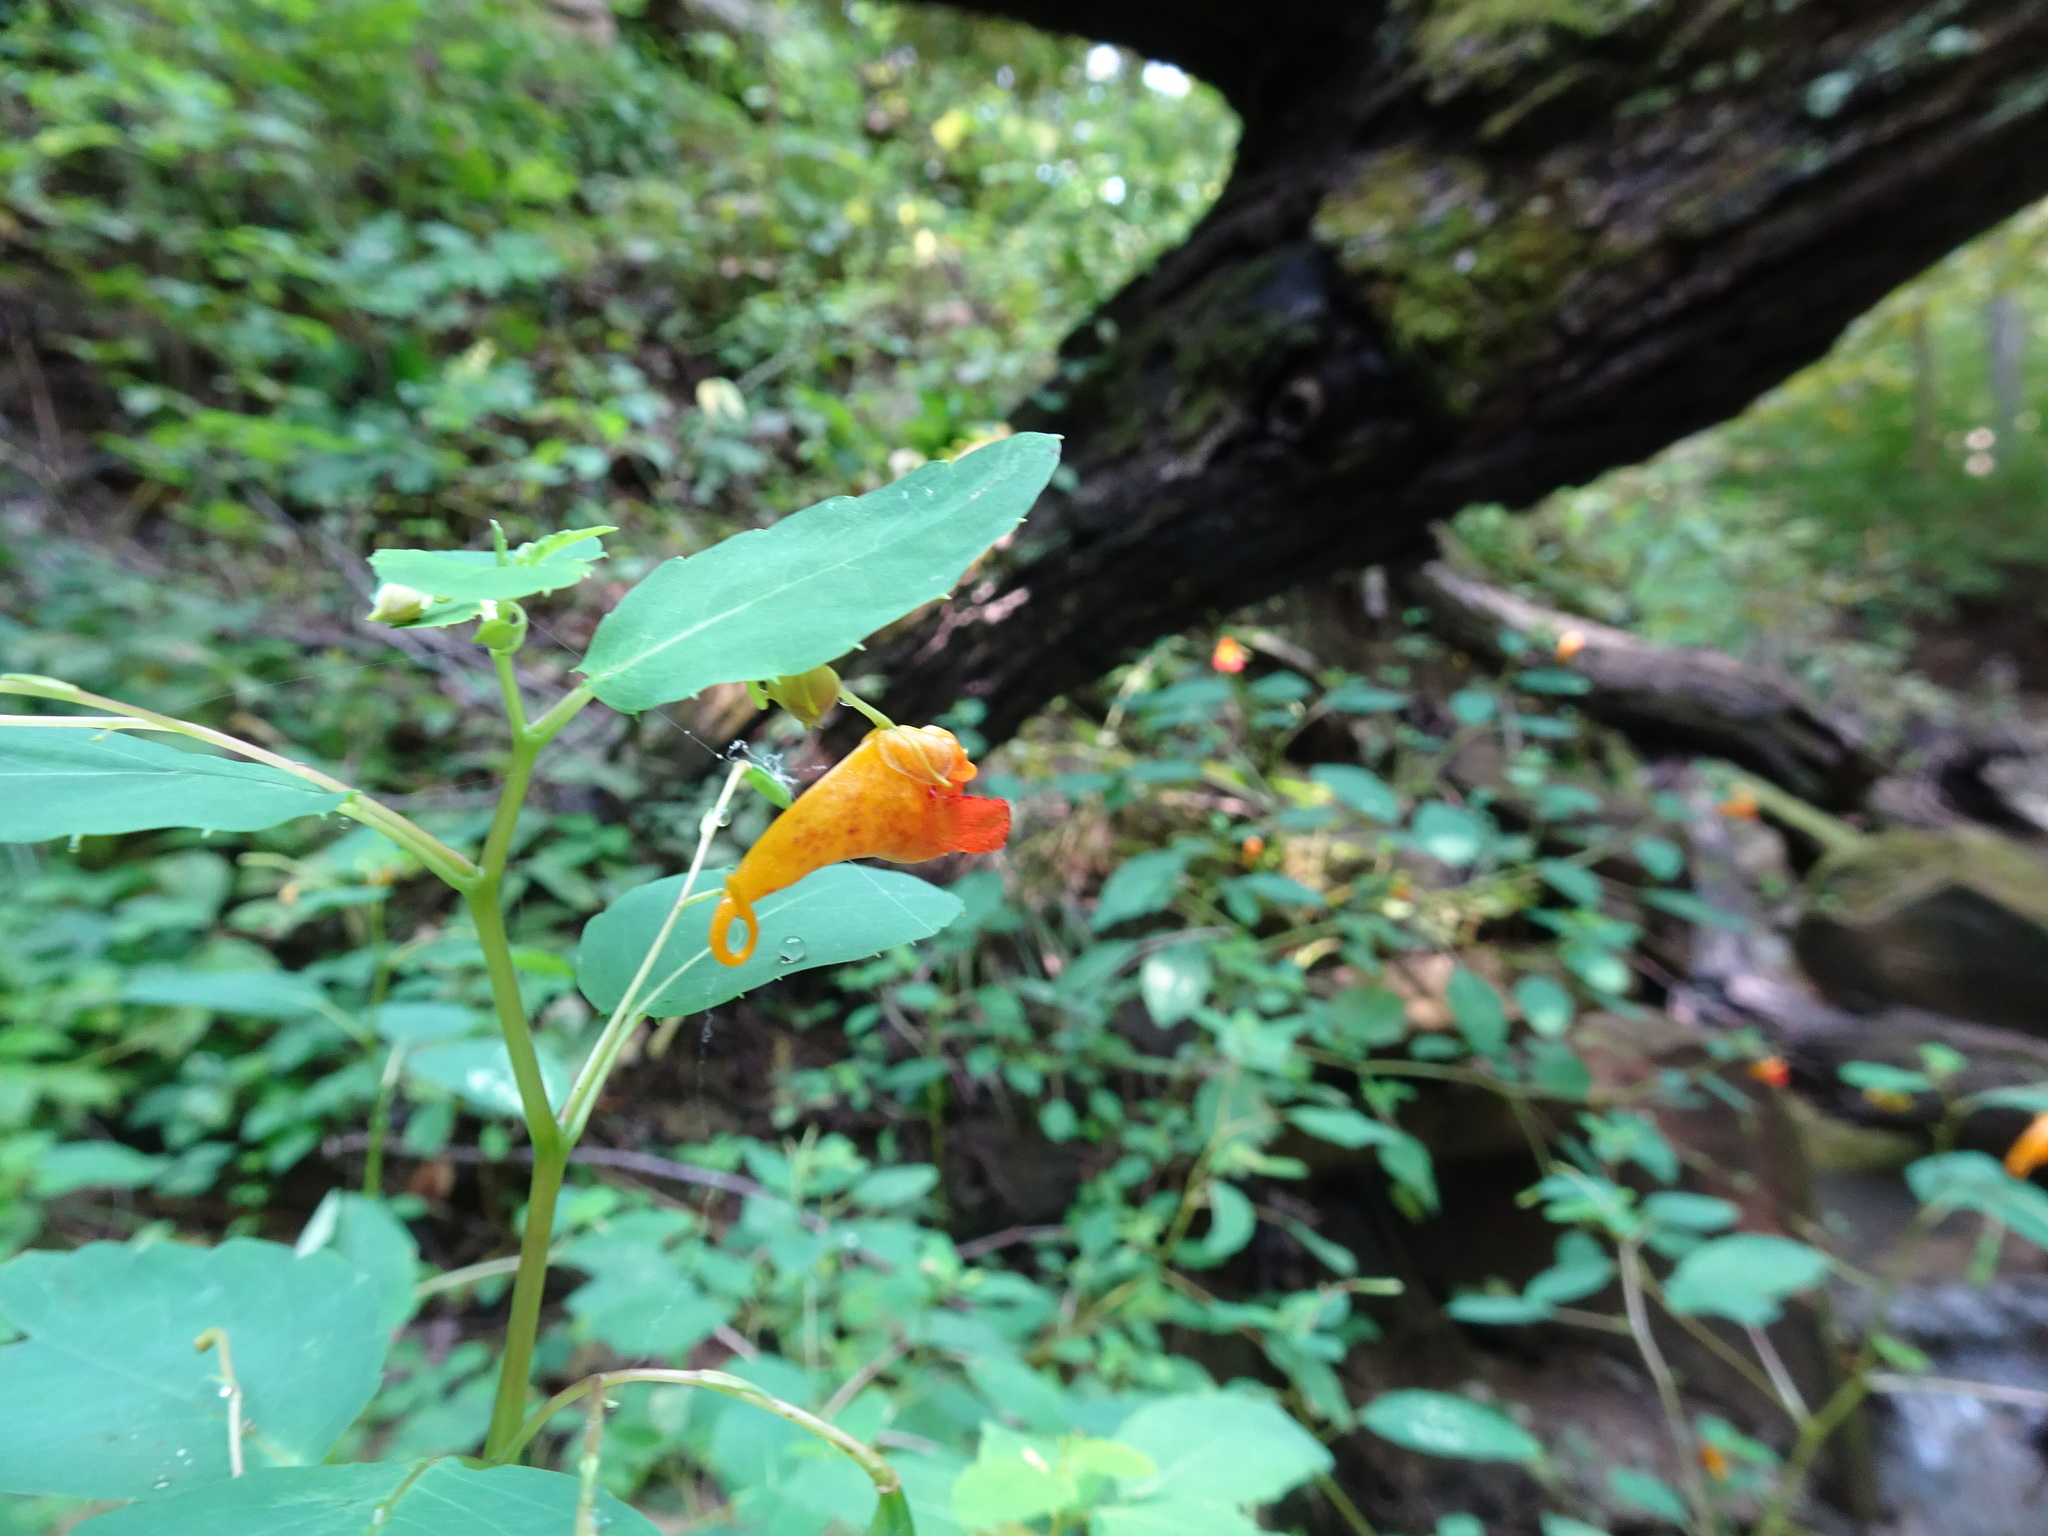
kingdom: Plantae
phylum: Tracheophyta
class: Magnoliopsida
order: Ericales
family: Balsaminaceae
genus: Impatiens
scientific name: Impatiens capensis
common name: Orange balsam
